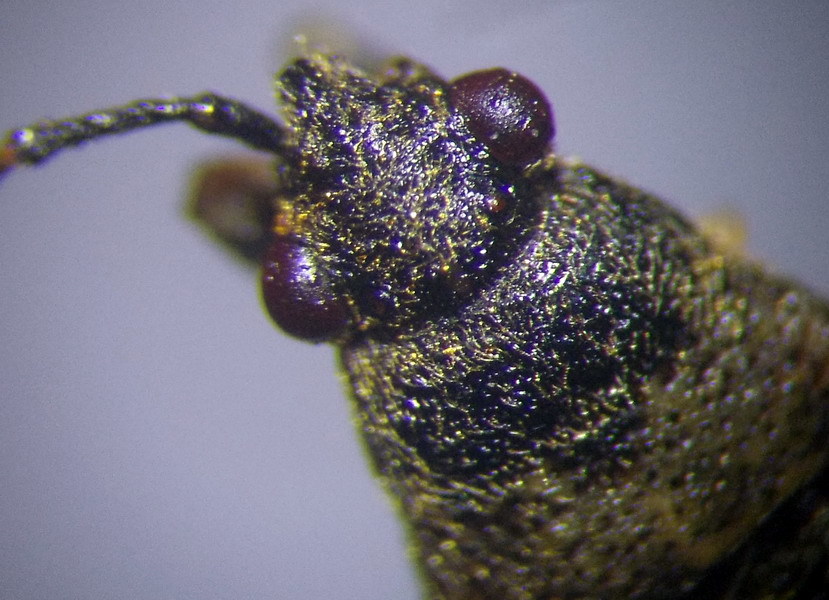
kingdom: Animalia
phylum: Arthropoda
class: Insecta
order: Hemiptera
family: Heterogastridae
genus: Heterogaster
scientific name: Heterogaster cathariae
